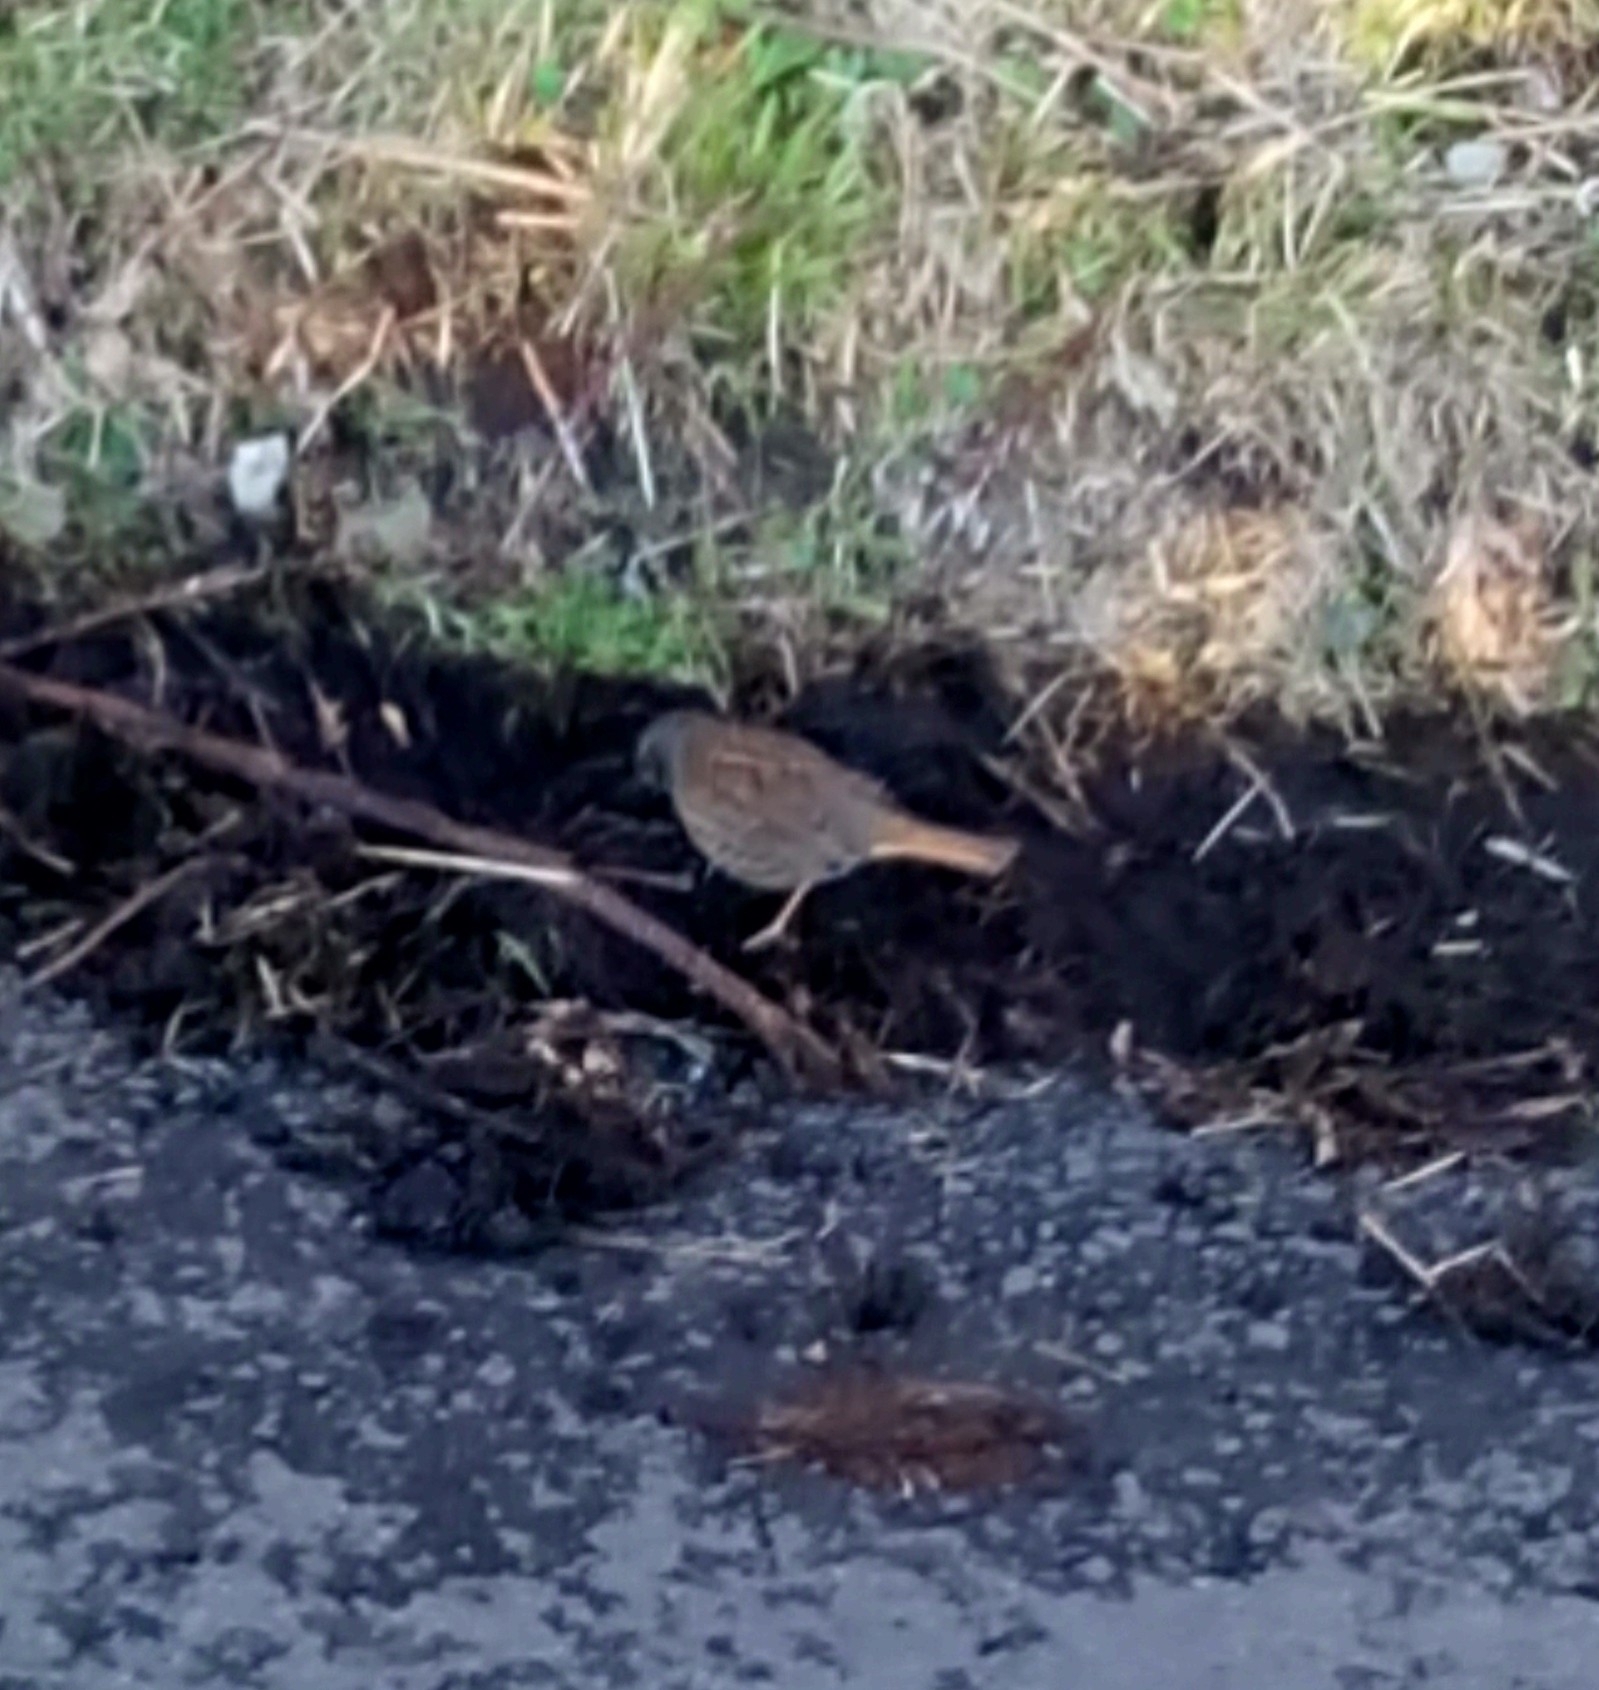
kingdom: Animalia
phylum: Chordata
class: Aves
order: Passeriformes
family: Prunellidae
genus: Prunella
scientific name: Prunella modularis
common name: Dunnock
